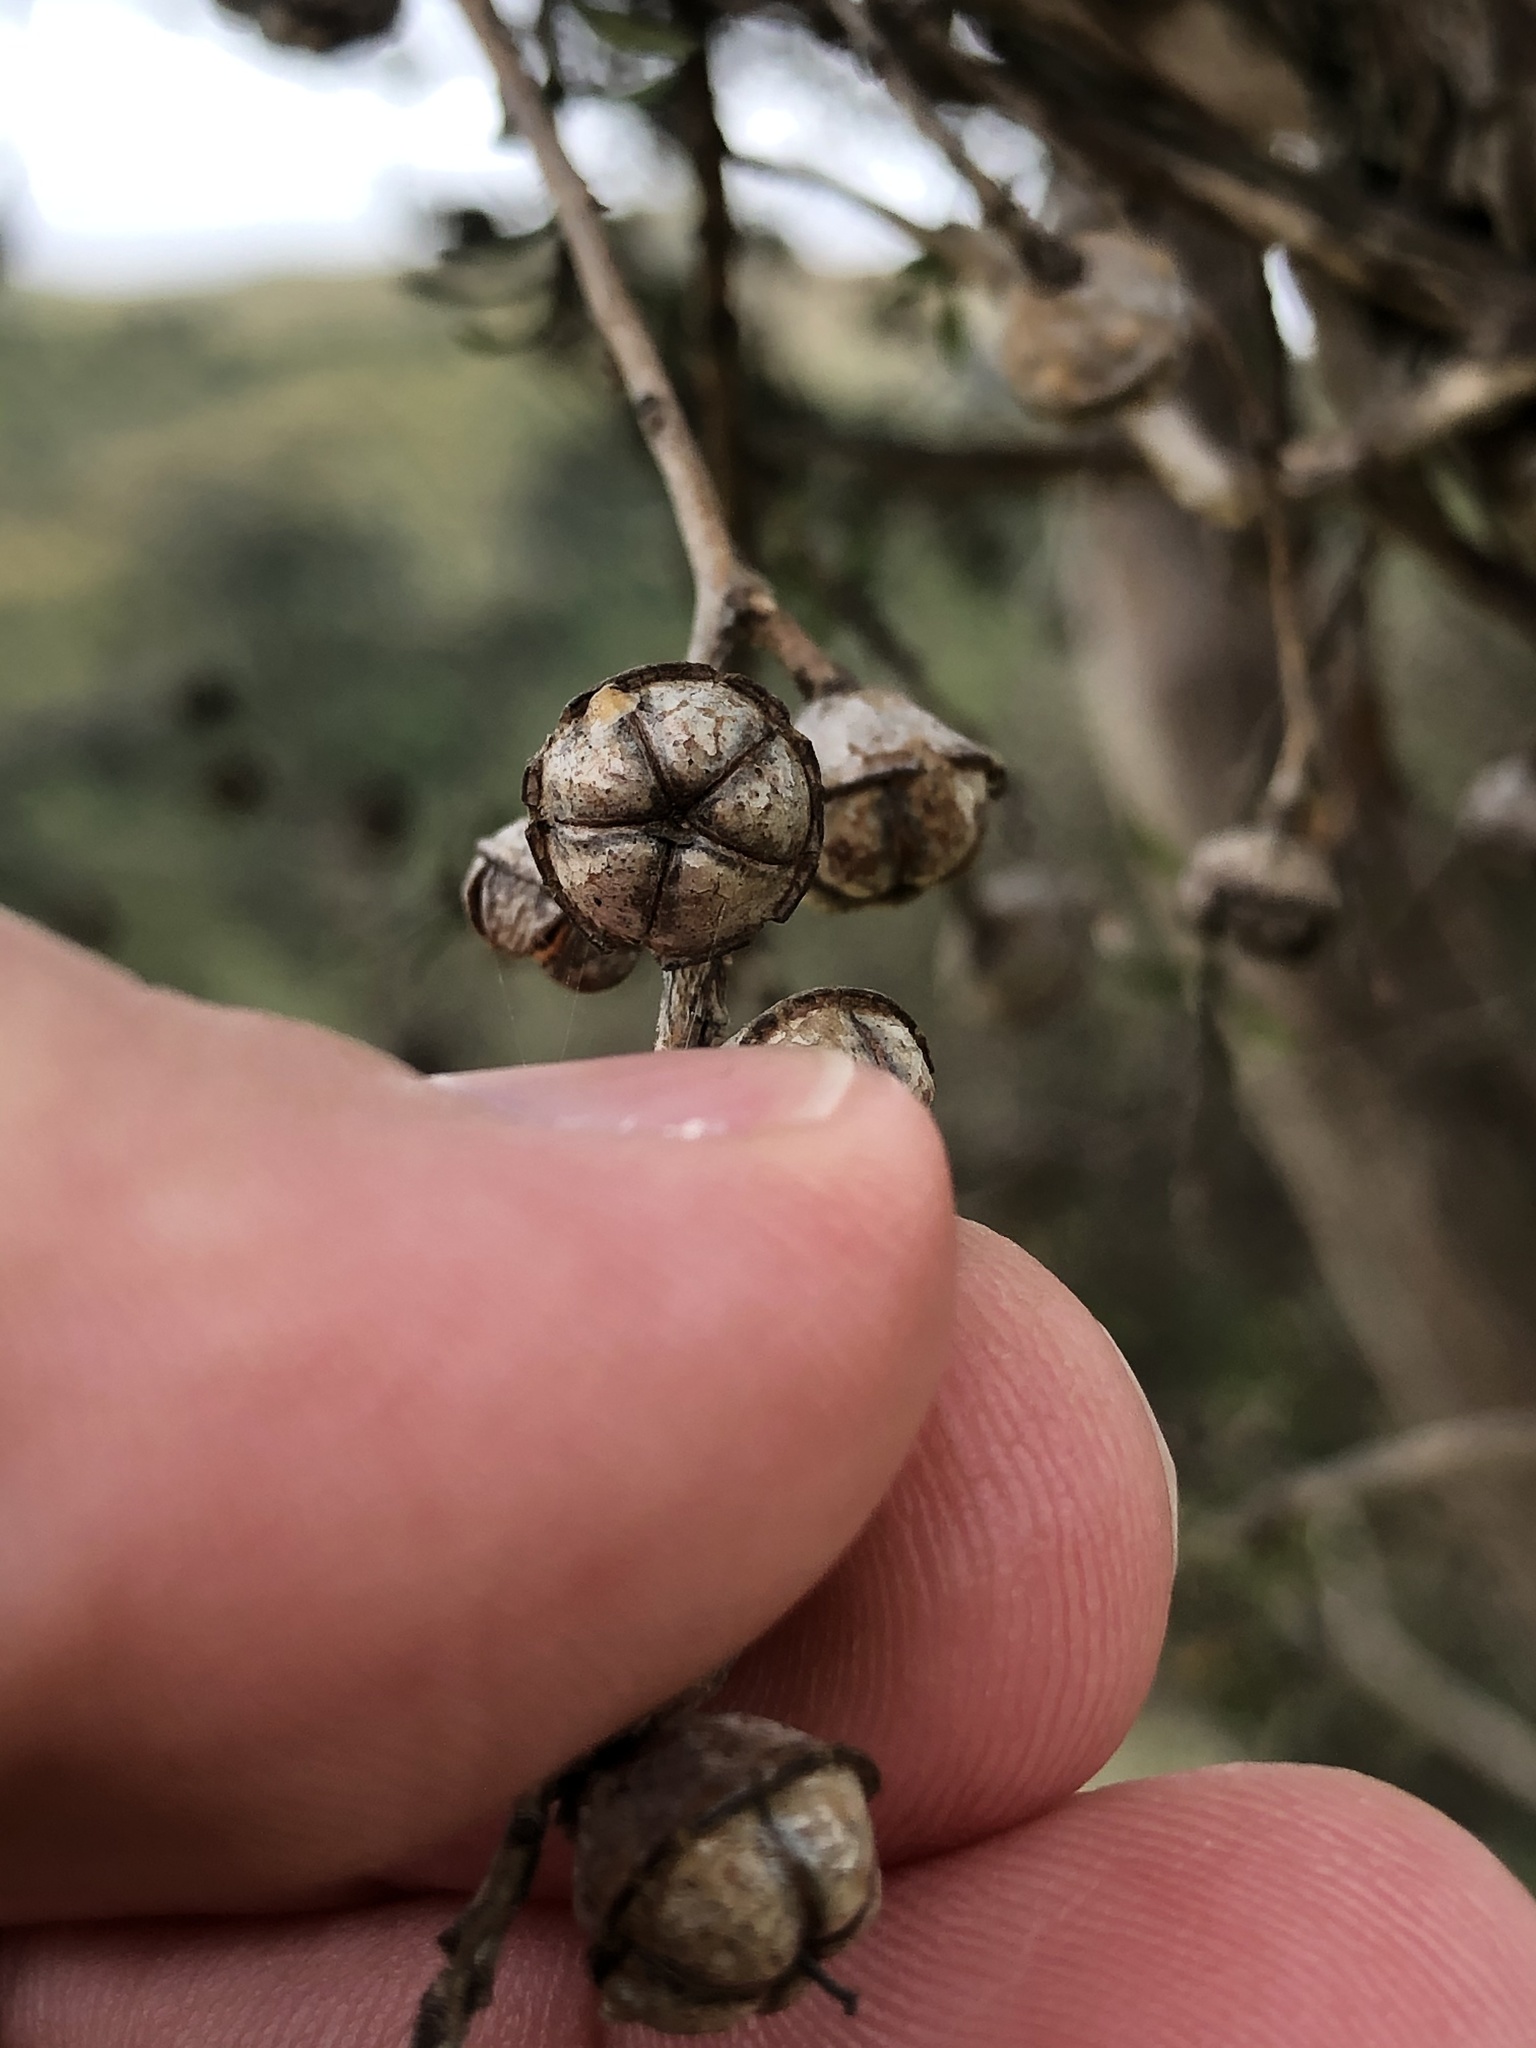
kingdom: Plantae
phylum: Tracheophyta
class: Magnoliopsida
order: Myrtales
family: Myrtaceae
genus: Leptospermum
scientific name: Leptospermum scoparium
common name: Broom tea-tree
